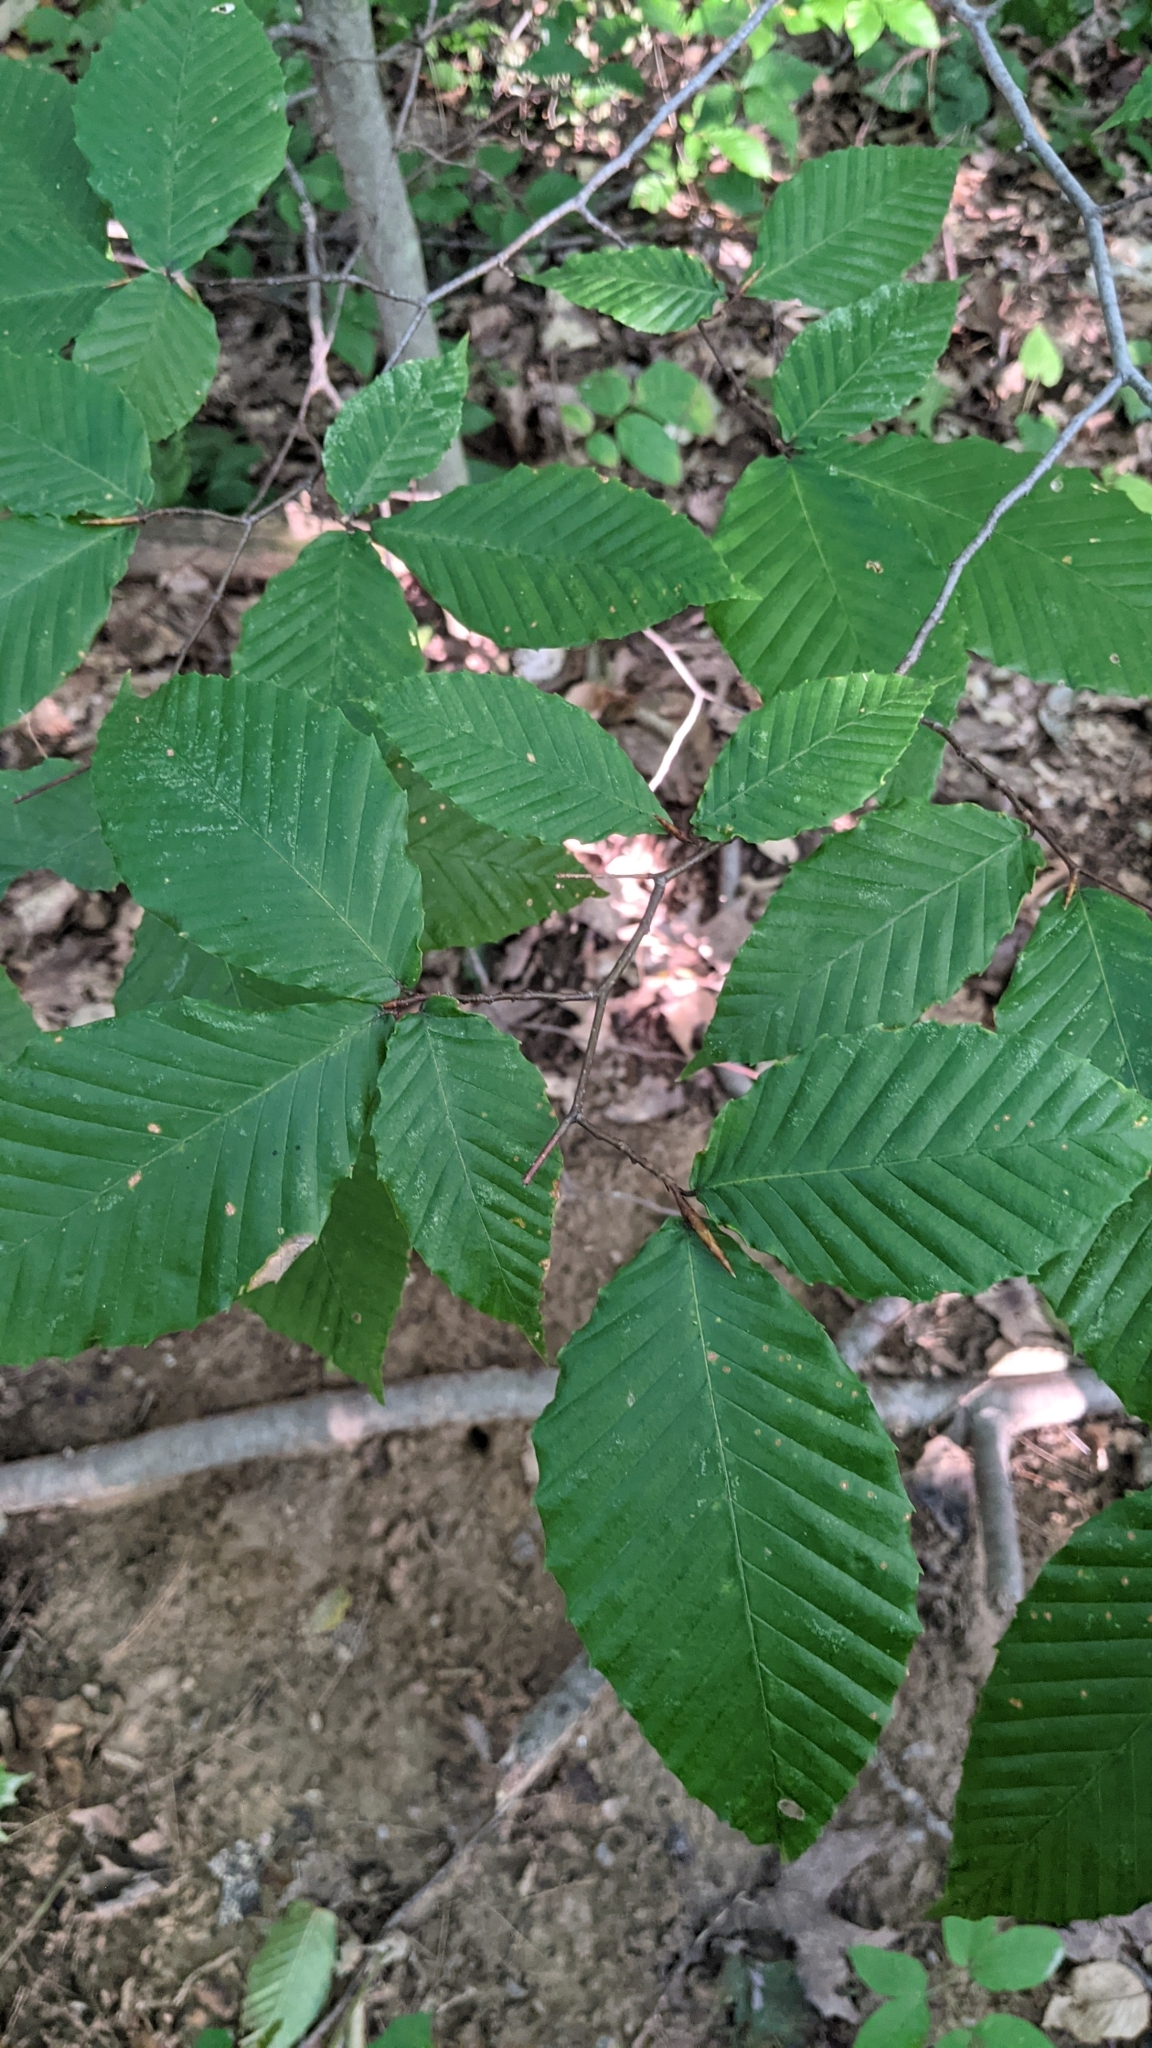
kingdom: Plantae
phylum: Tracheophyta
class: Magnoliopsida
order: Fagales
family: Fagaceae
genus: Fagus
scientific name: Fagus grandifolia
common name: American beech
